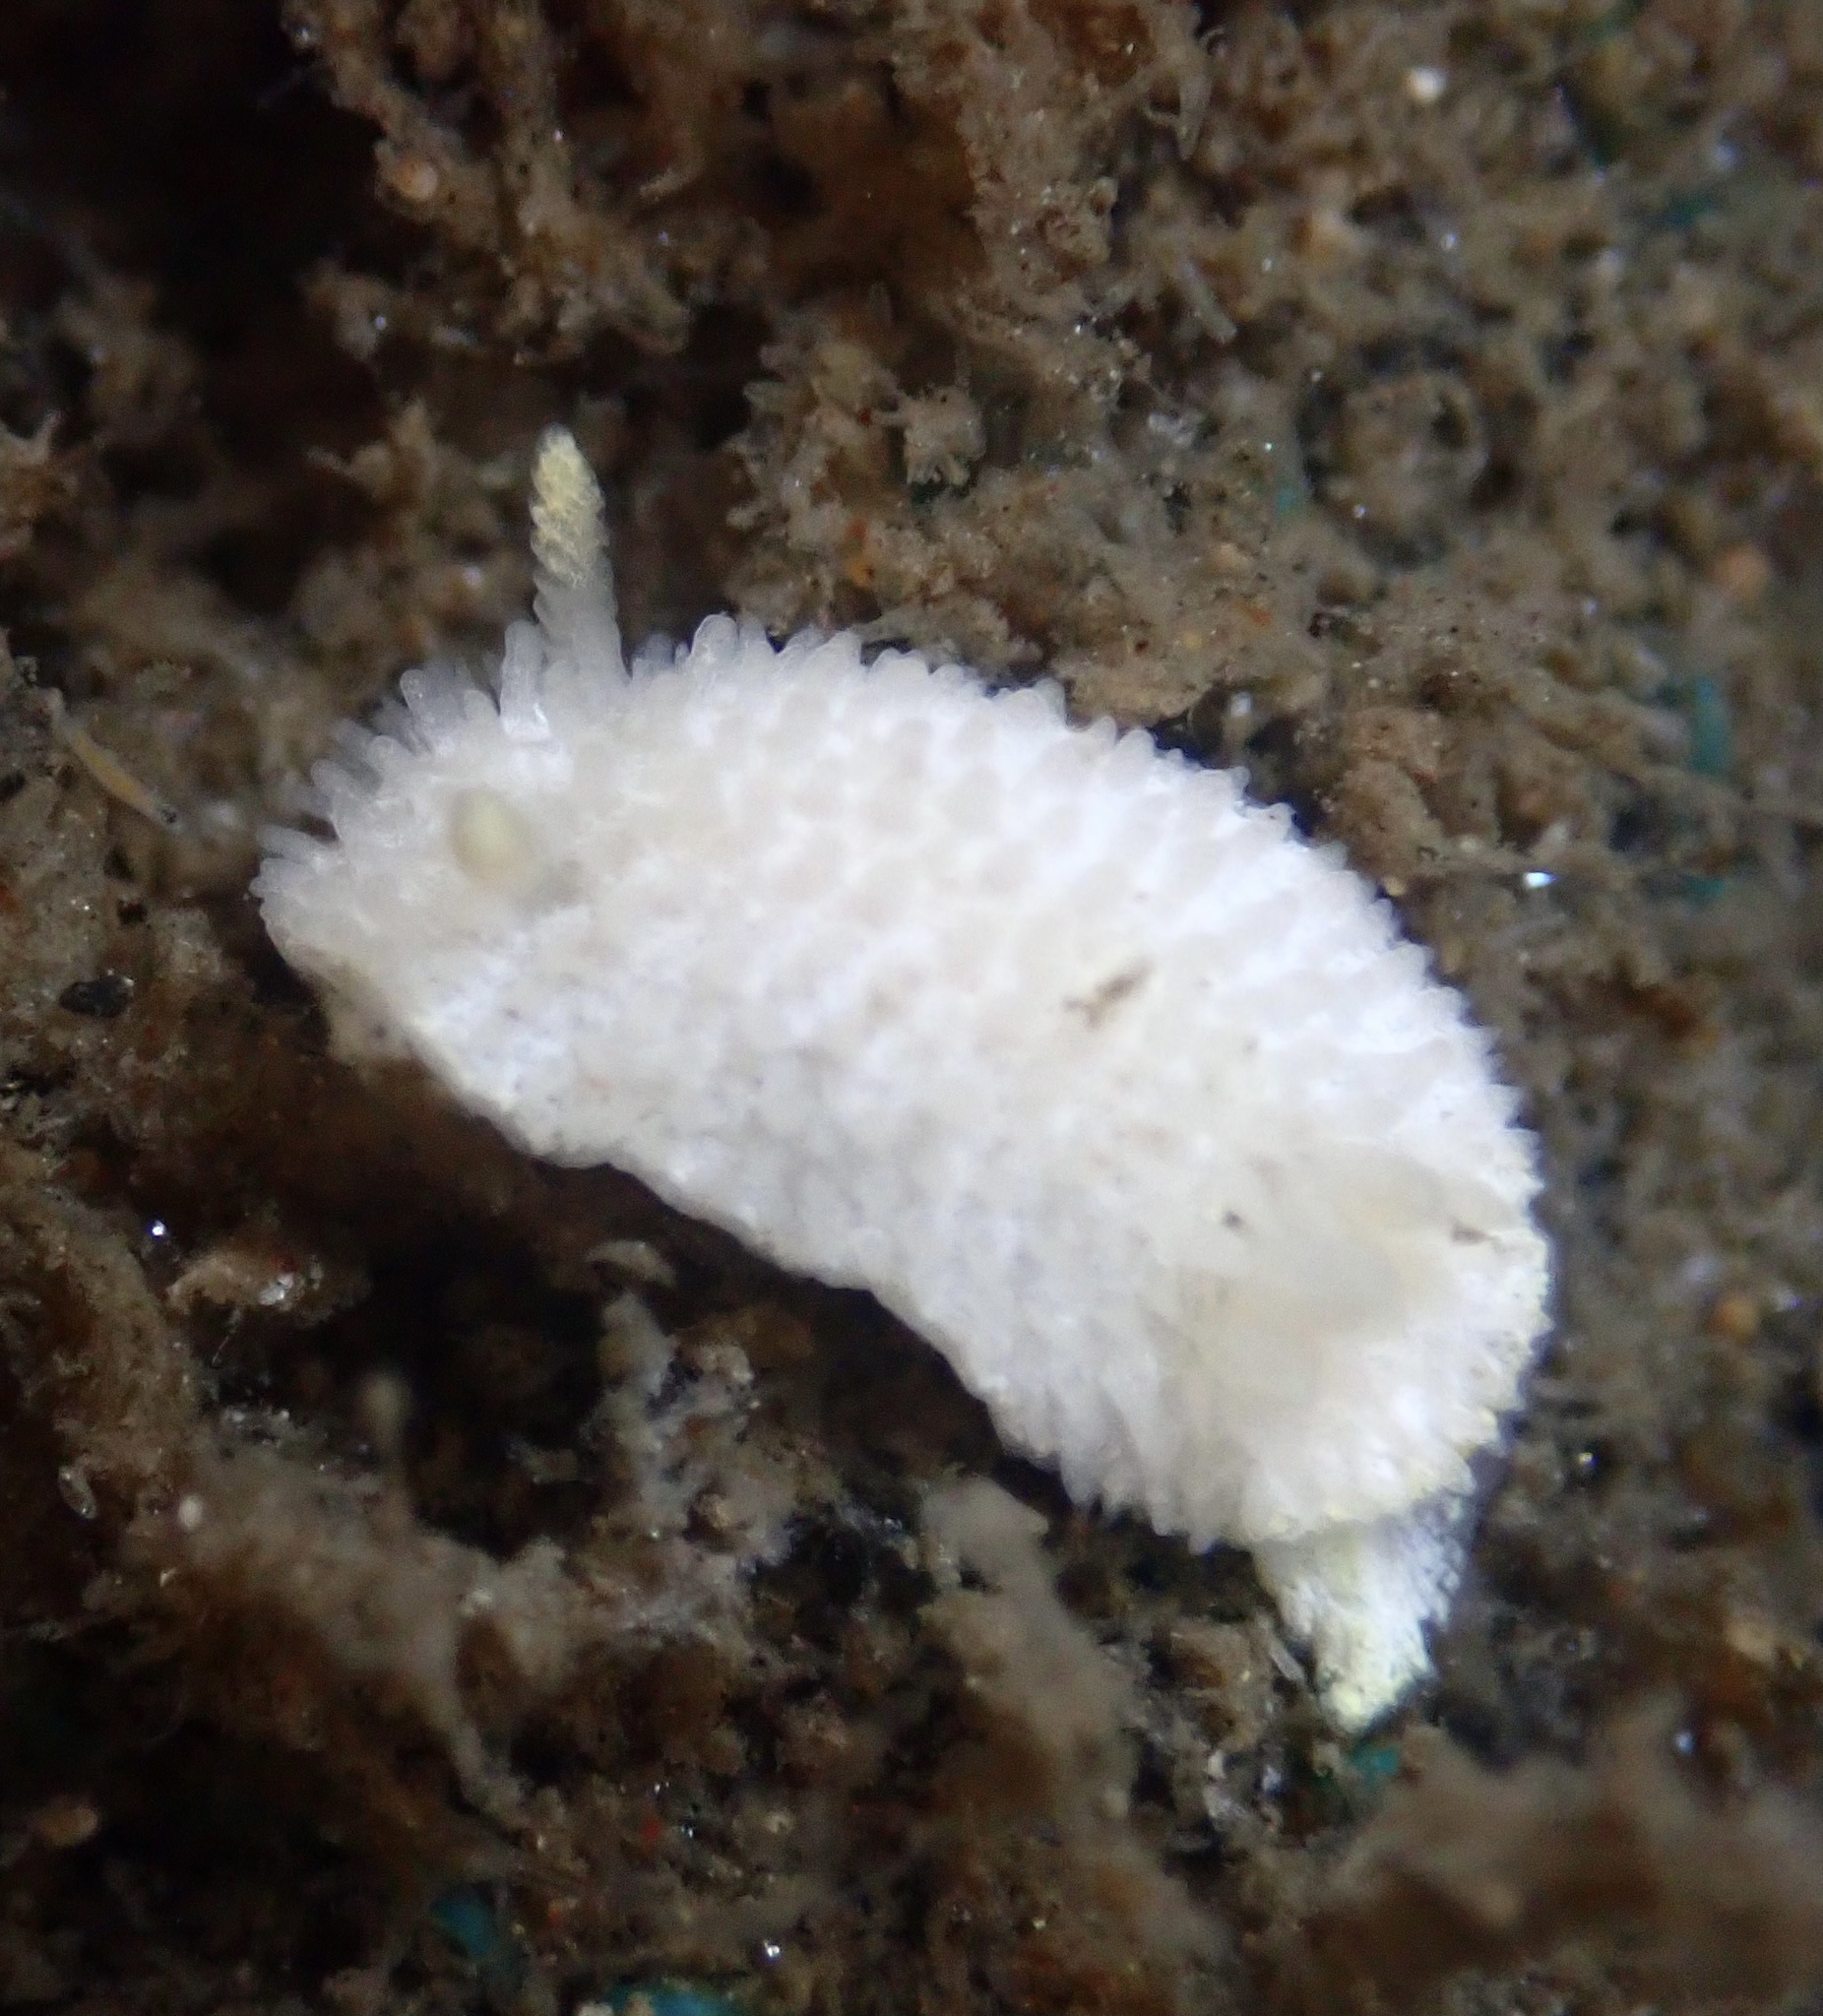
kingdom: Animalia
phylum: Mollusca
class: Gastropoda
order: Nudibranchia
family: Calycidorididae
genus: Diaphorodoris
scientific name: Diaphorodoris lirulatocauda
